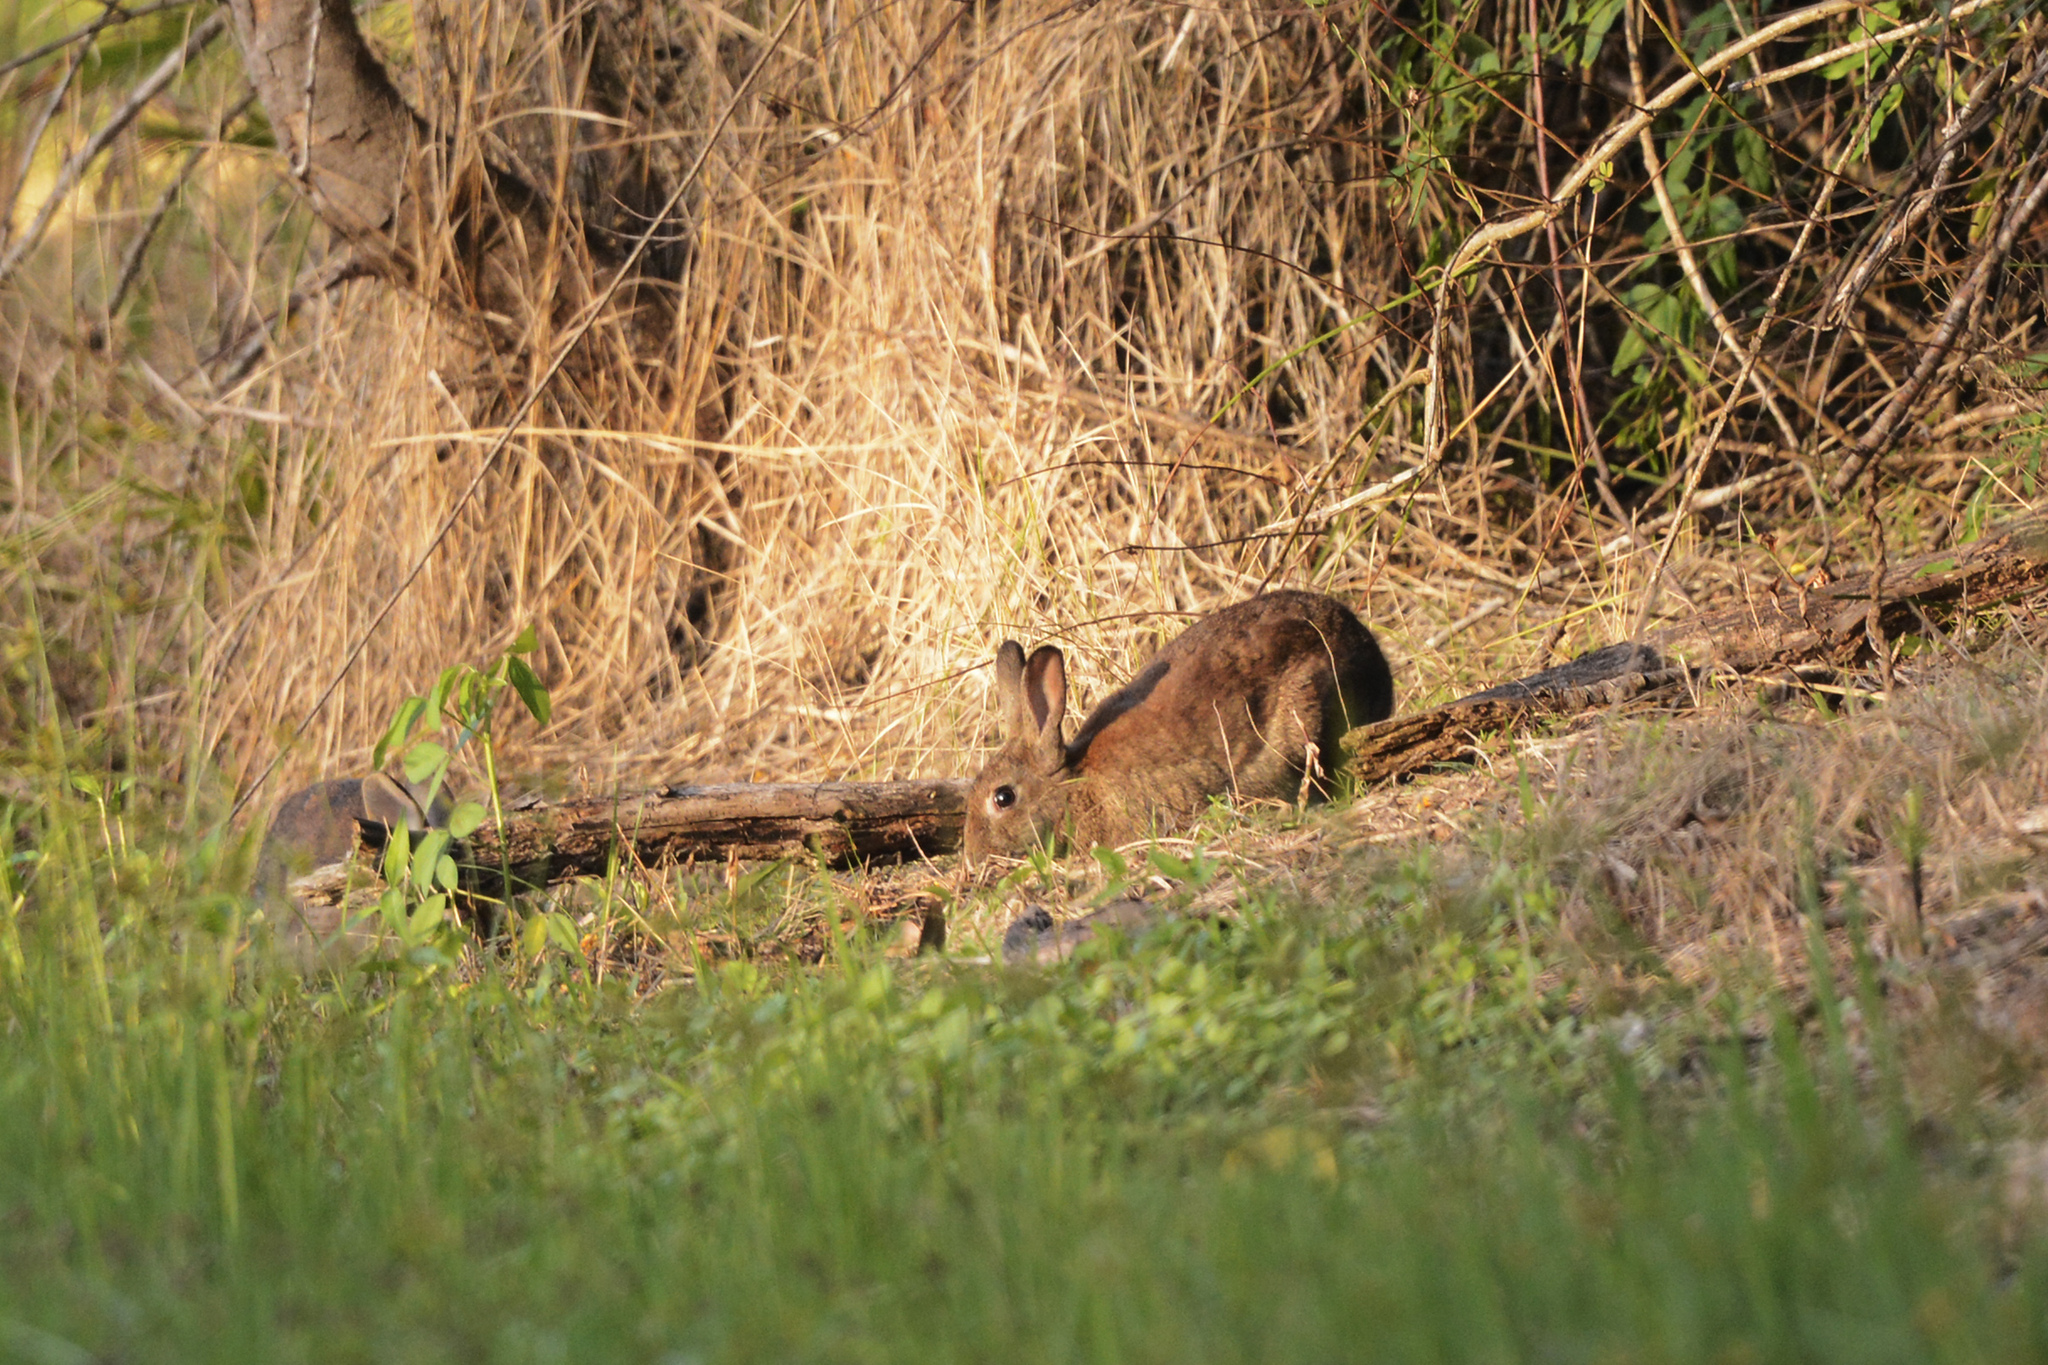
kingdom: Animalia
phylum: Chordata
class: Mammalia
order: Lagomorpha
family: Leporidae
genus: Oryctolagus
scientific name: Oryctolagus cuniculus
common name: European rabbit
